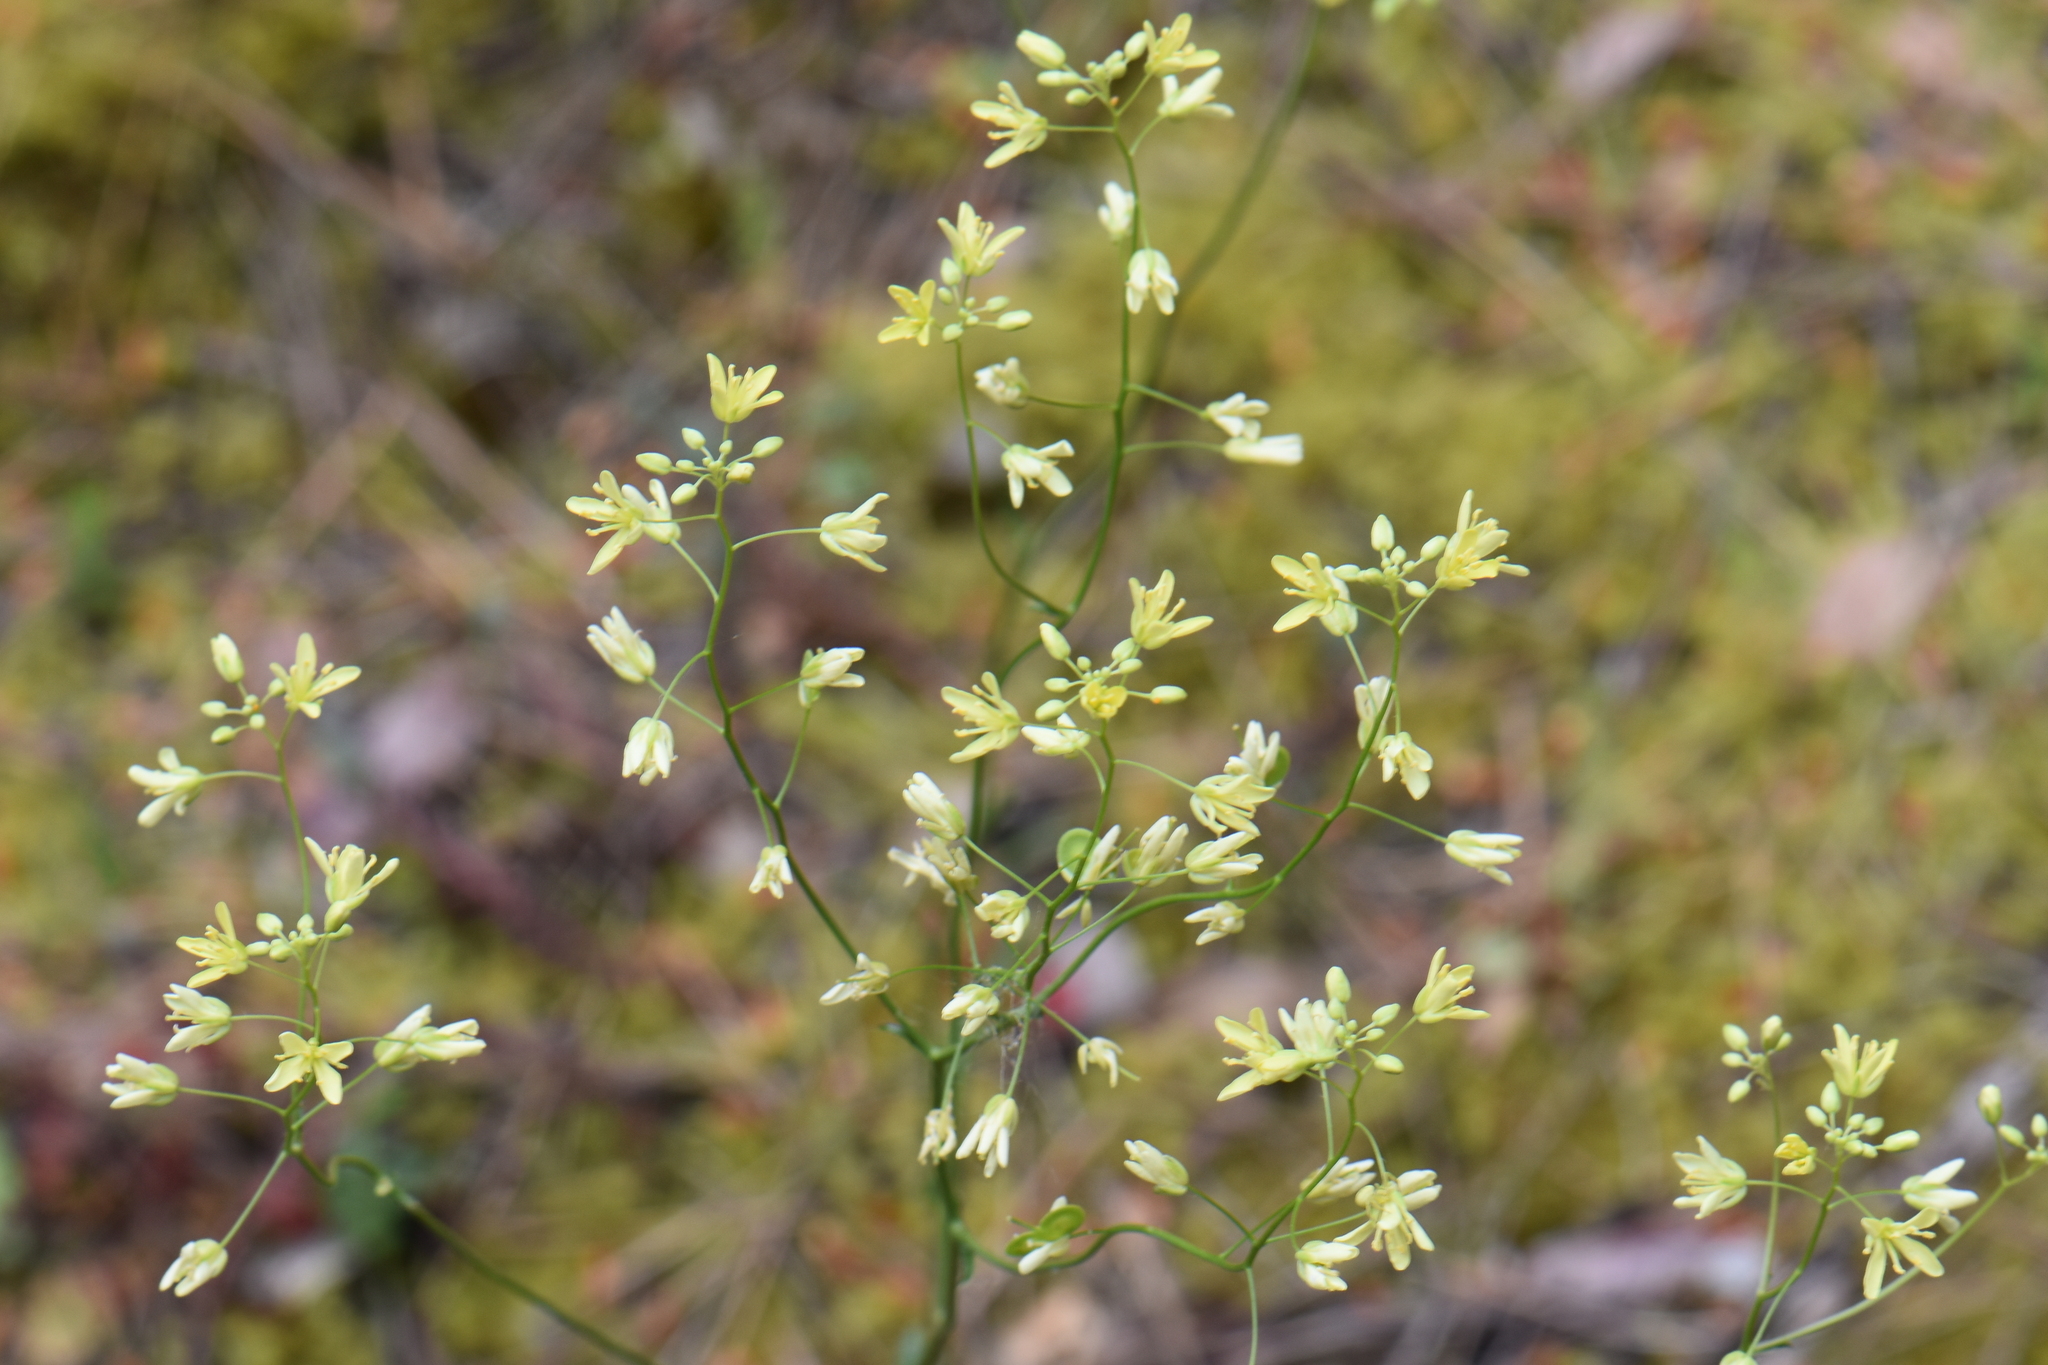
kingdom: Plantae
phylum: Tracheophyta
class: Magnoliopsida
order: Brassicales
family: Brassicaceae
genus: Biscutella
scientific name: Biscutella coronopifolia
